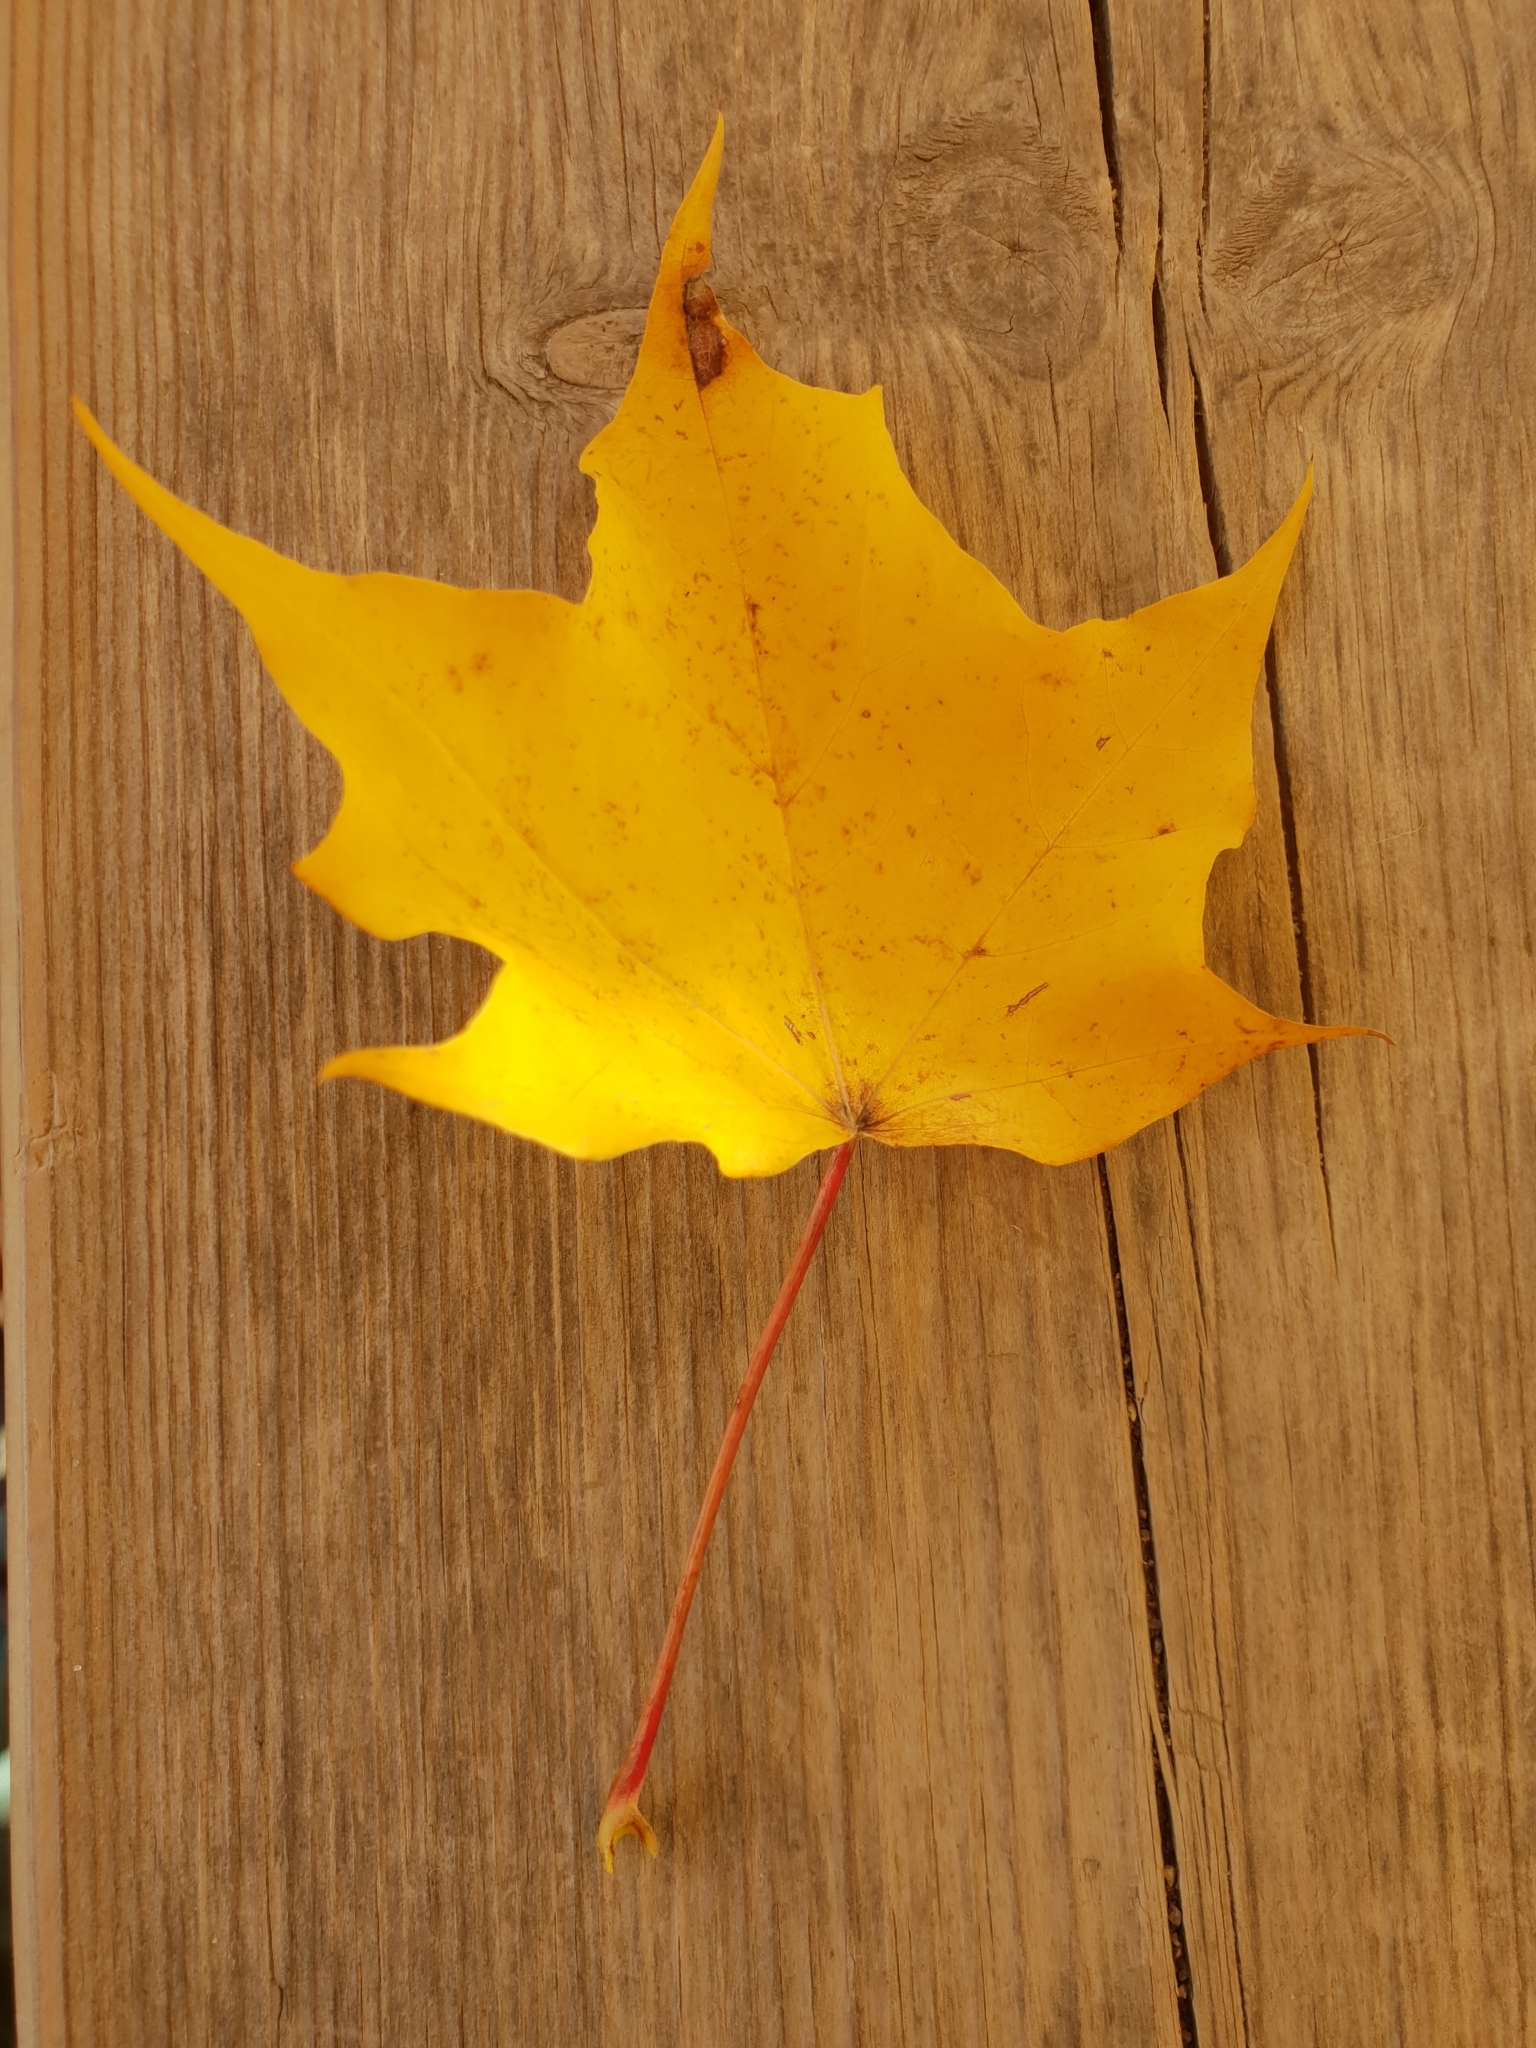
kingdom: Plantae
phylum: Tracheophyta
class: Magnoliopsida
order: Sapindales
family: Sapindaceae
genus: Acer
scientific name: Acer platanoides
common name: Norway maple
